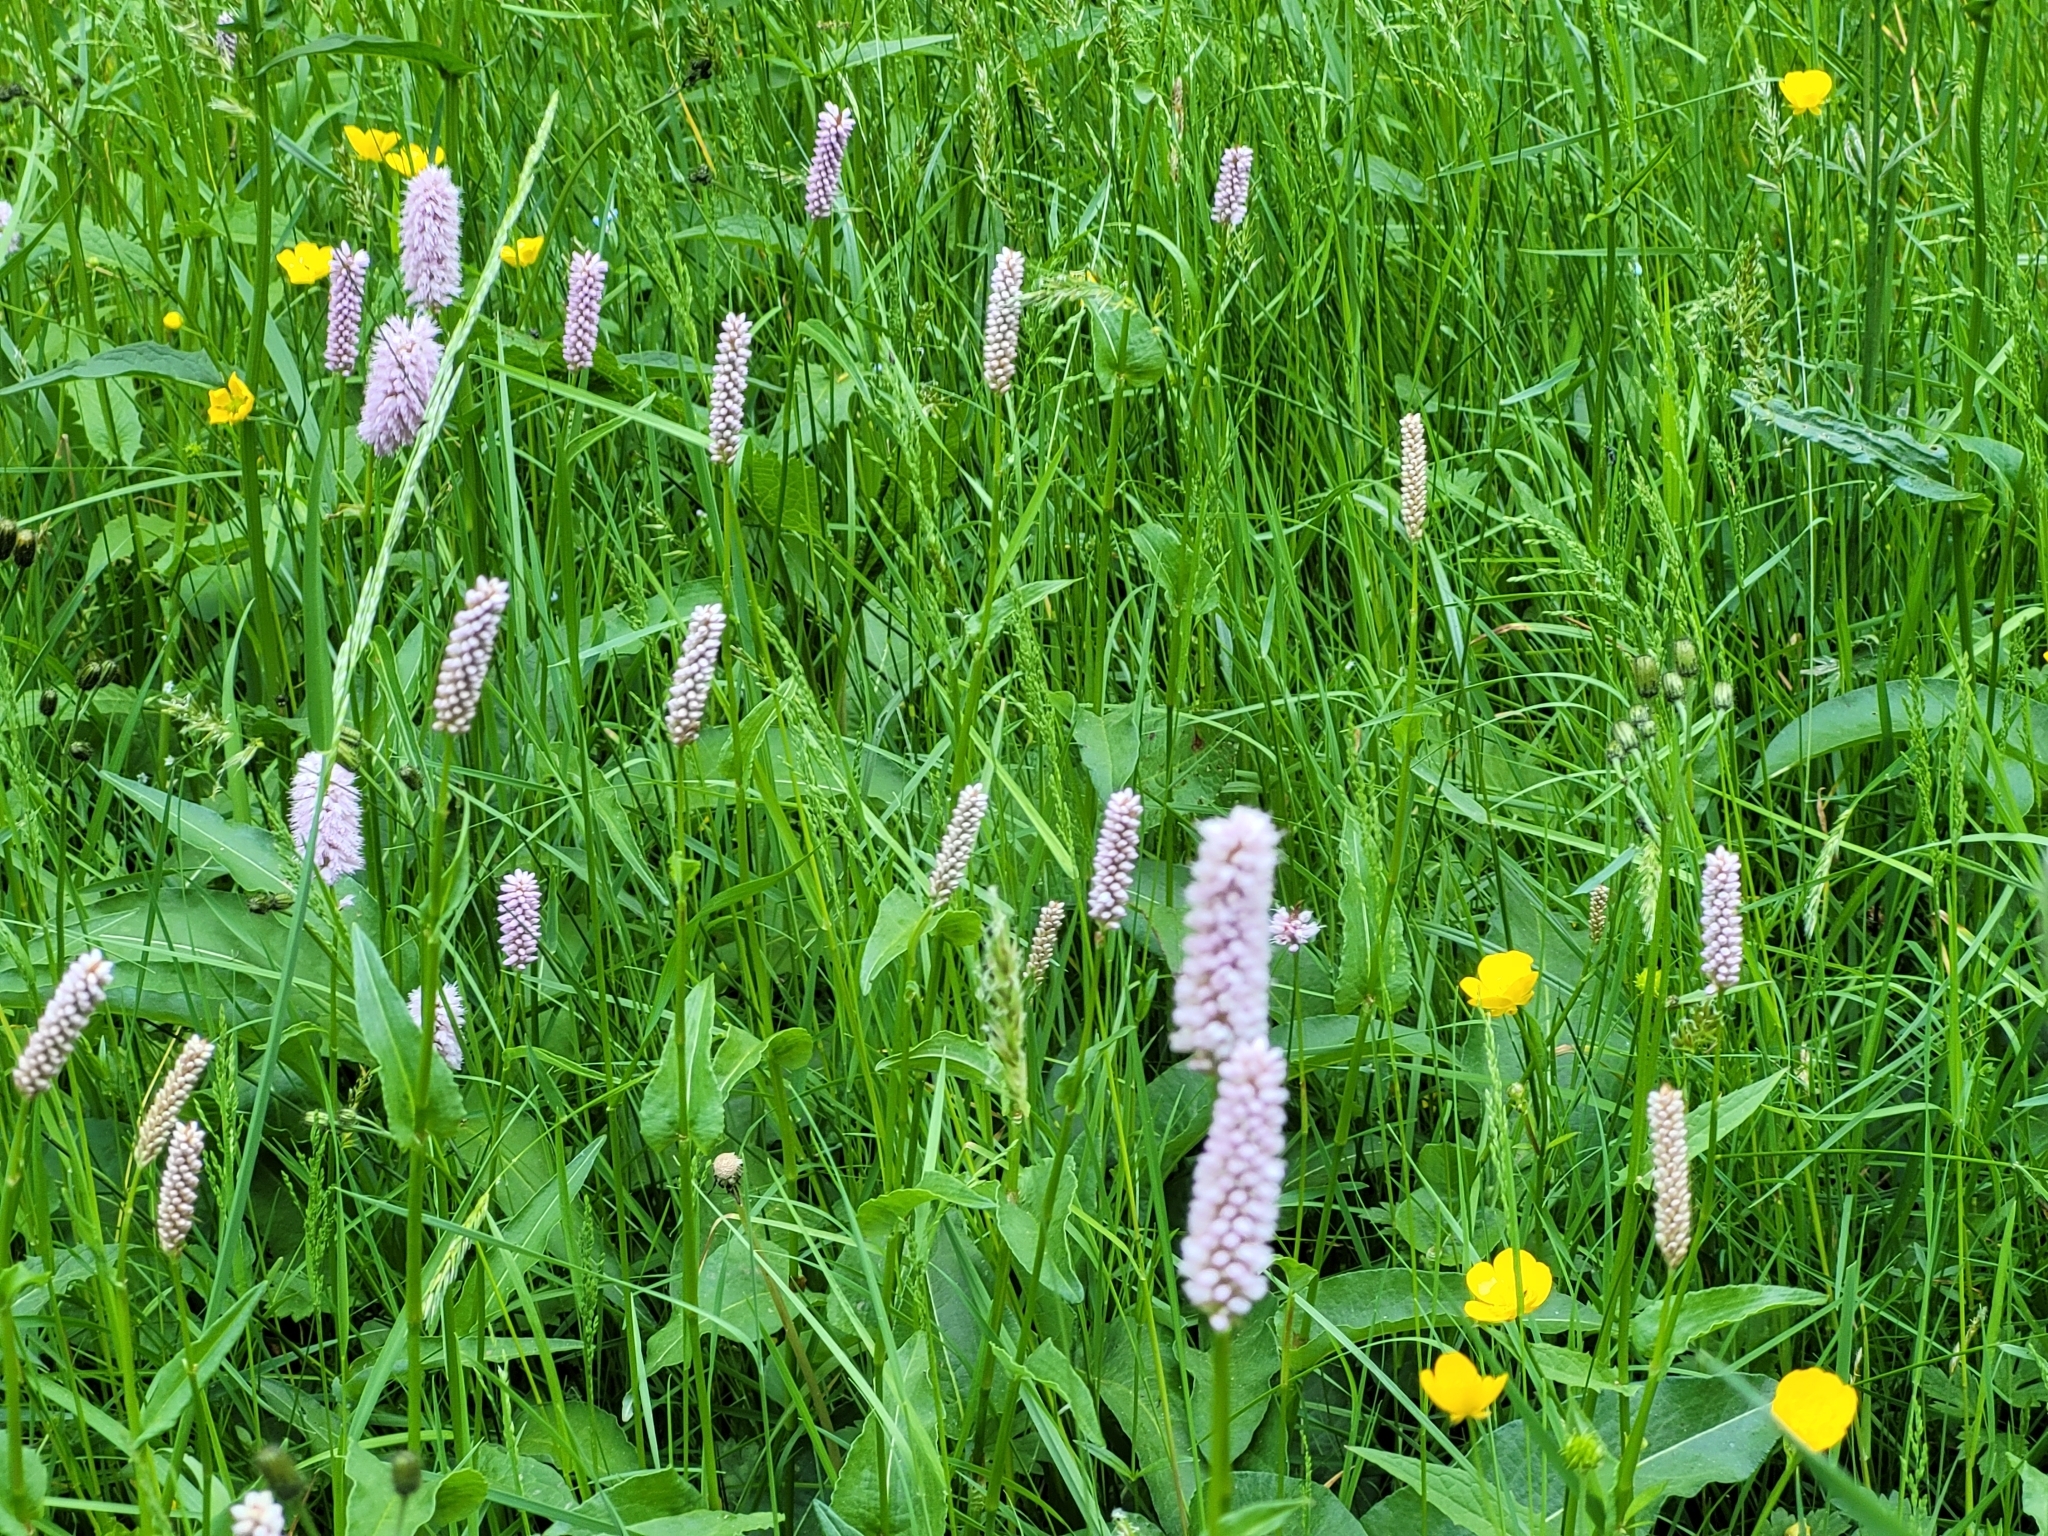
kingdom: Plantae
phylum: Tracheophyta
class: Magnoliopsida
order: Caryophyllales
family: Polygonaceae
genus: Bistorta
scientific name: Bistorta officinalis
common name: Common bistort
